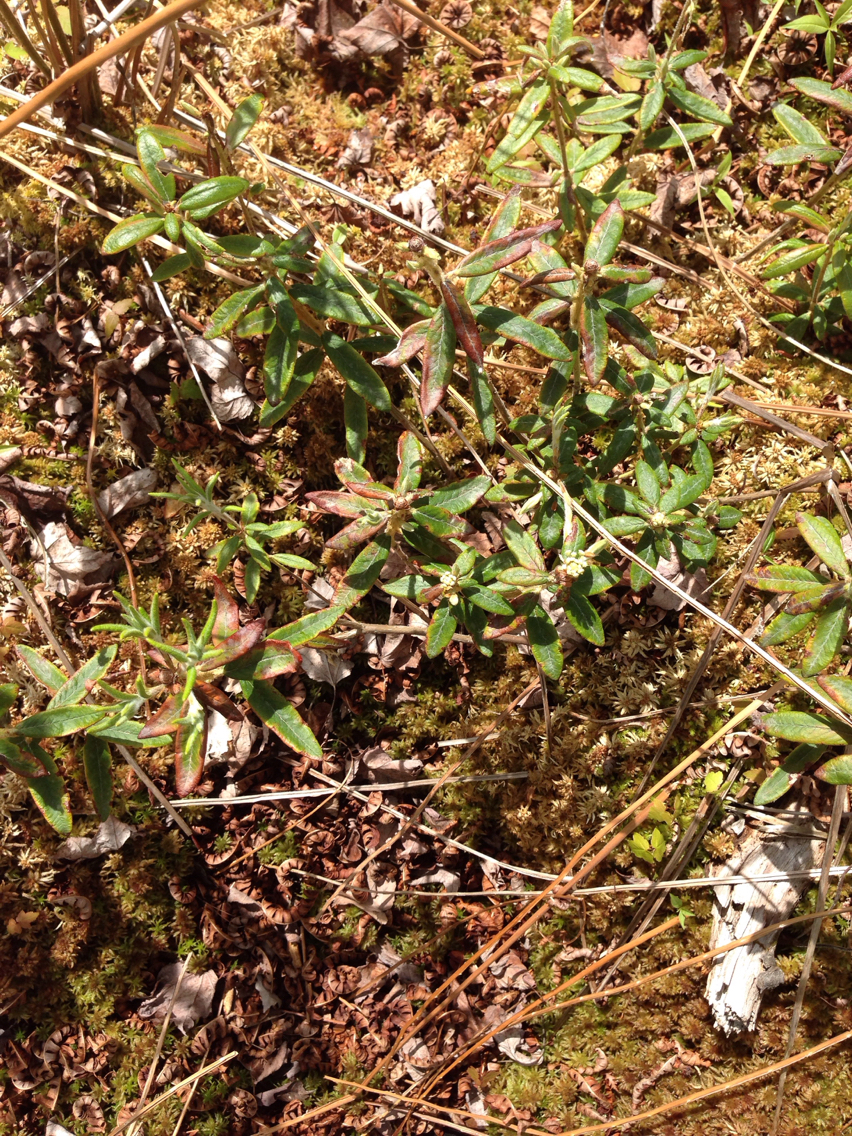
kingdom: Plantae
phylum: Tracheophyta
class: Magnoliopsida
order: Ericales
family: Ericaceae
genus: Rhododendron
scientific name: Rhododendron groenlandicum
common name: Bog labrador tea
